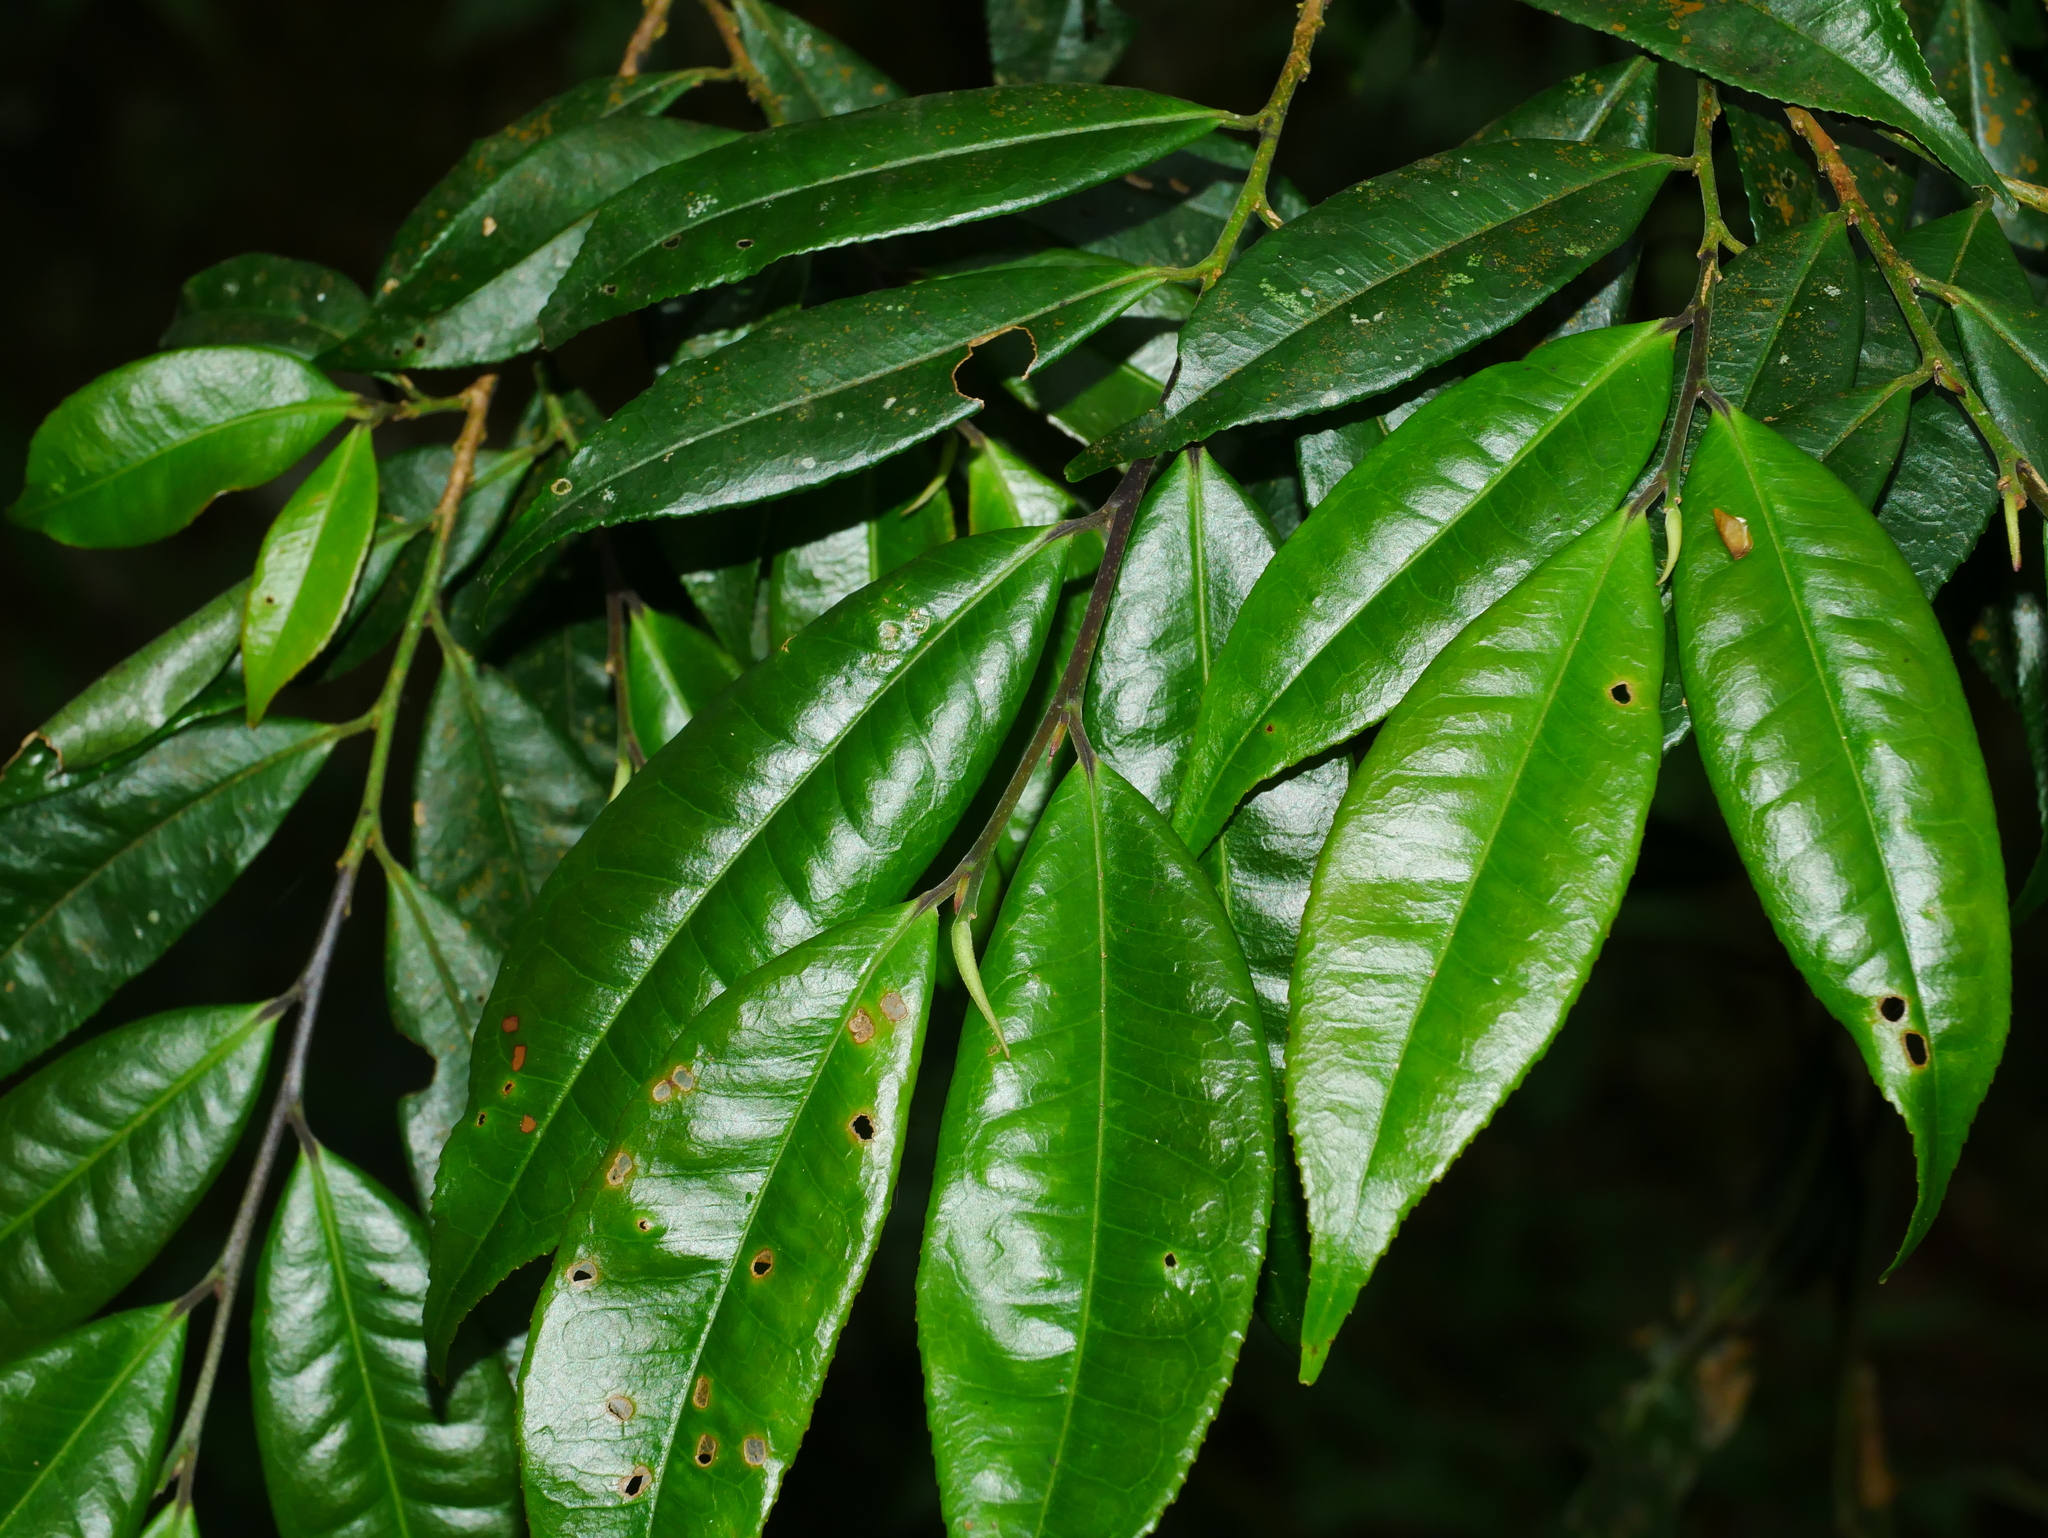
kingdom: Plantae
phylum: Tracheophyta
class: Magnoliopsida
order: Ericales
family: Pentaphylacaceae
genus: Eurya
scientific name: Eurya loquaiana
